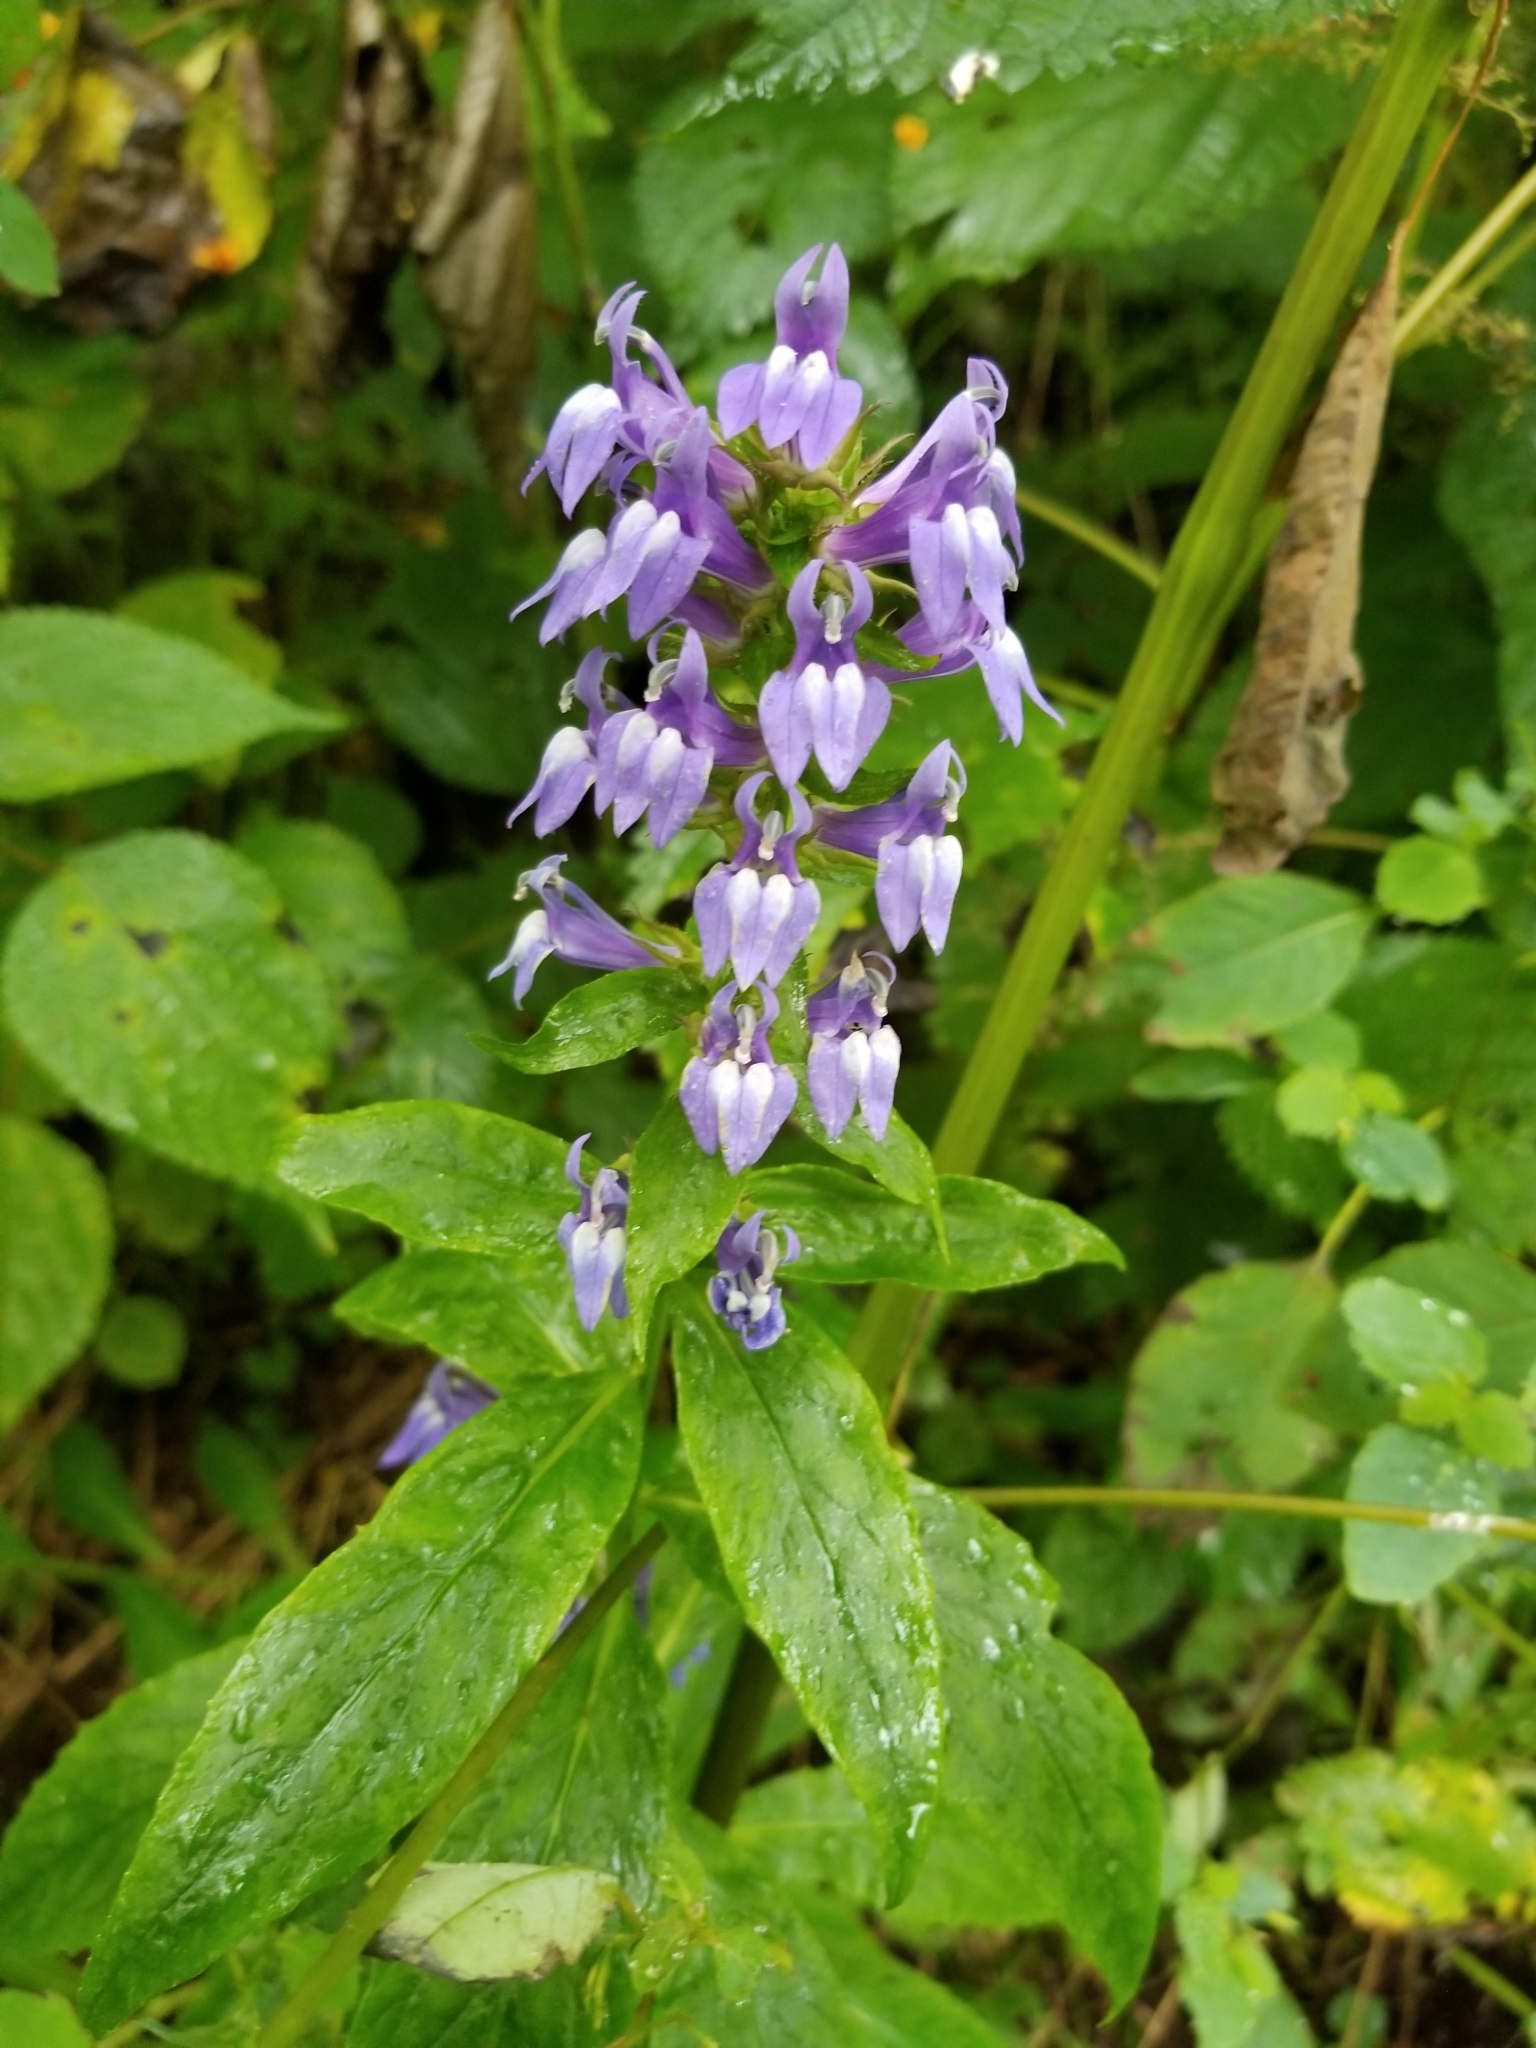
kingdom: Plantae
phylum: Tracheophyta
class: Magnoliopsida
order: Asterales
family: Campanulaceae
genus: Lobelia
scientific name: Lobelia siphilitica
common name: Great lobelia
